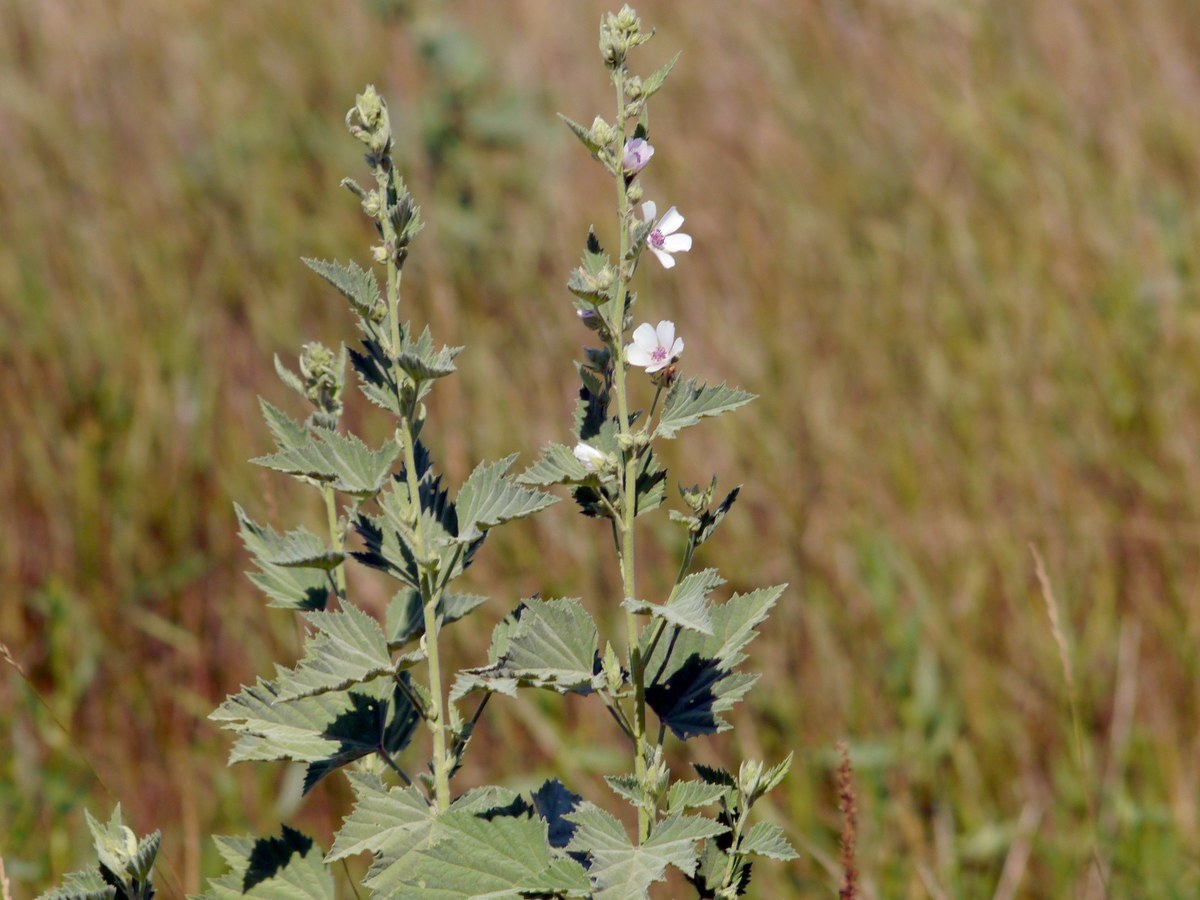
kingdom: Plantae
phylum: Tracheophyta
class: Magnoliopsida
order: Malvales
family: Malvaceae
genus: Althaea
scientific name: Althaea officinalis
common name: Marsh-mallow
